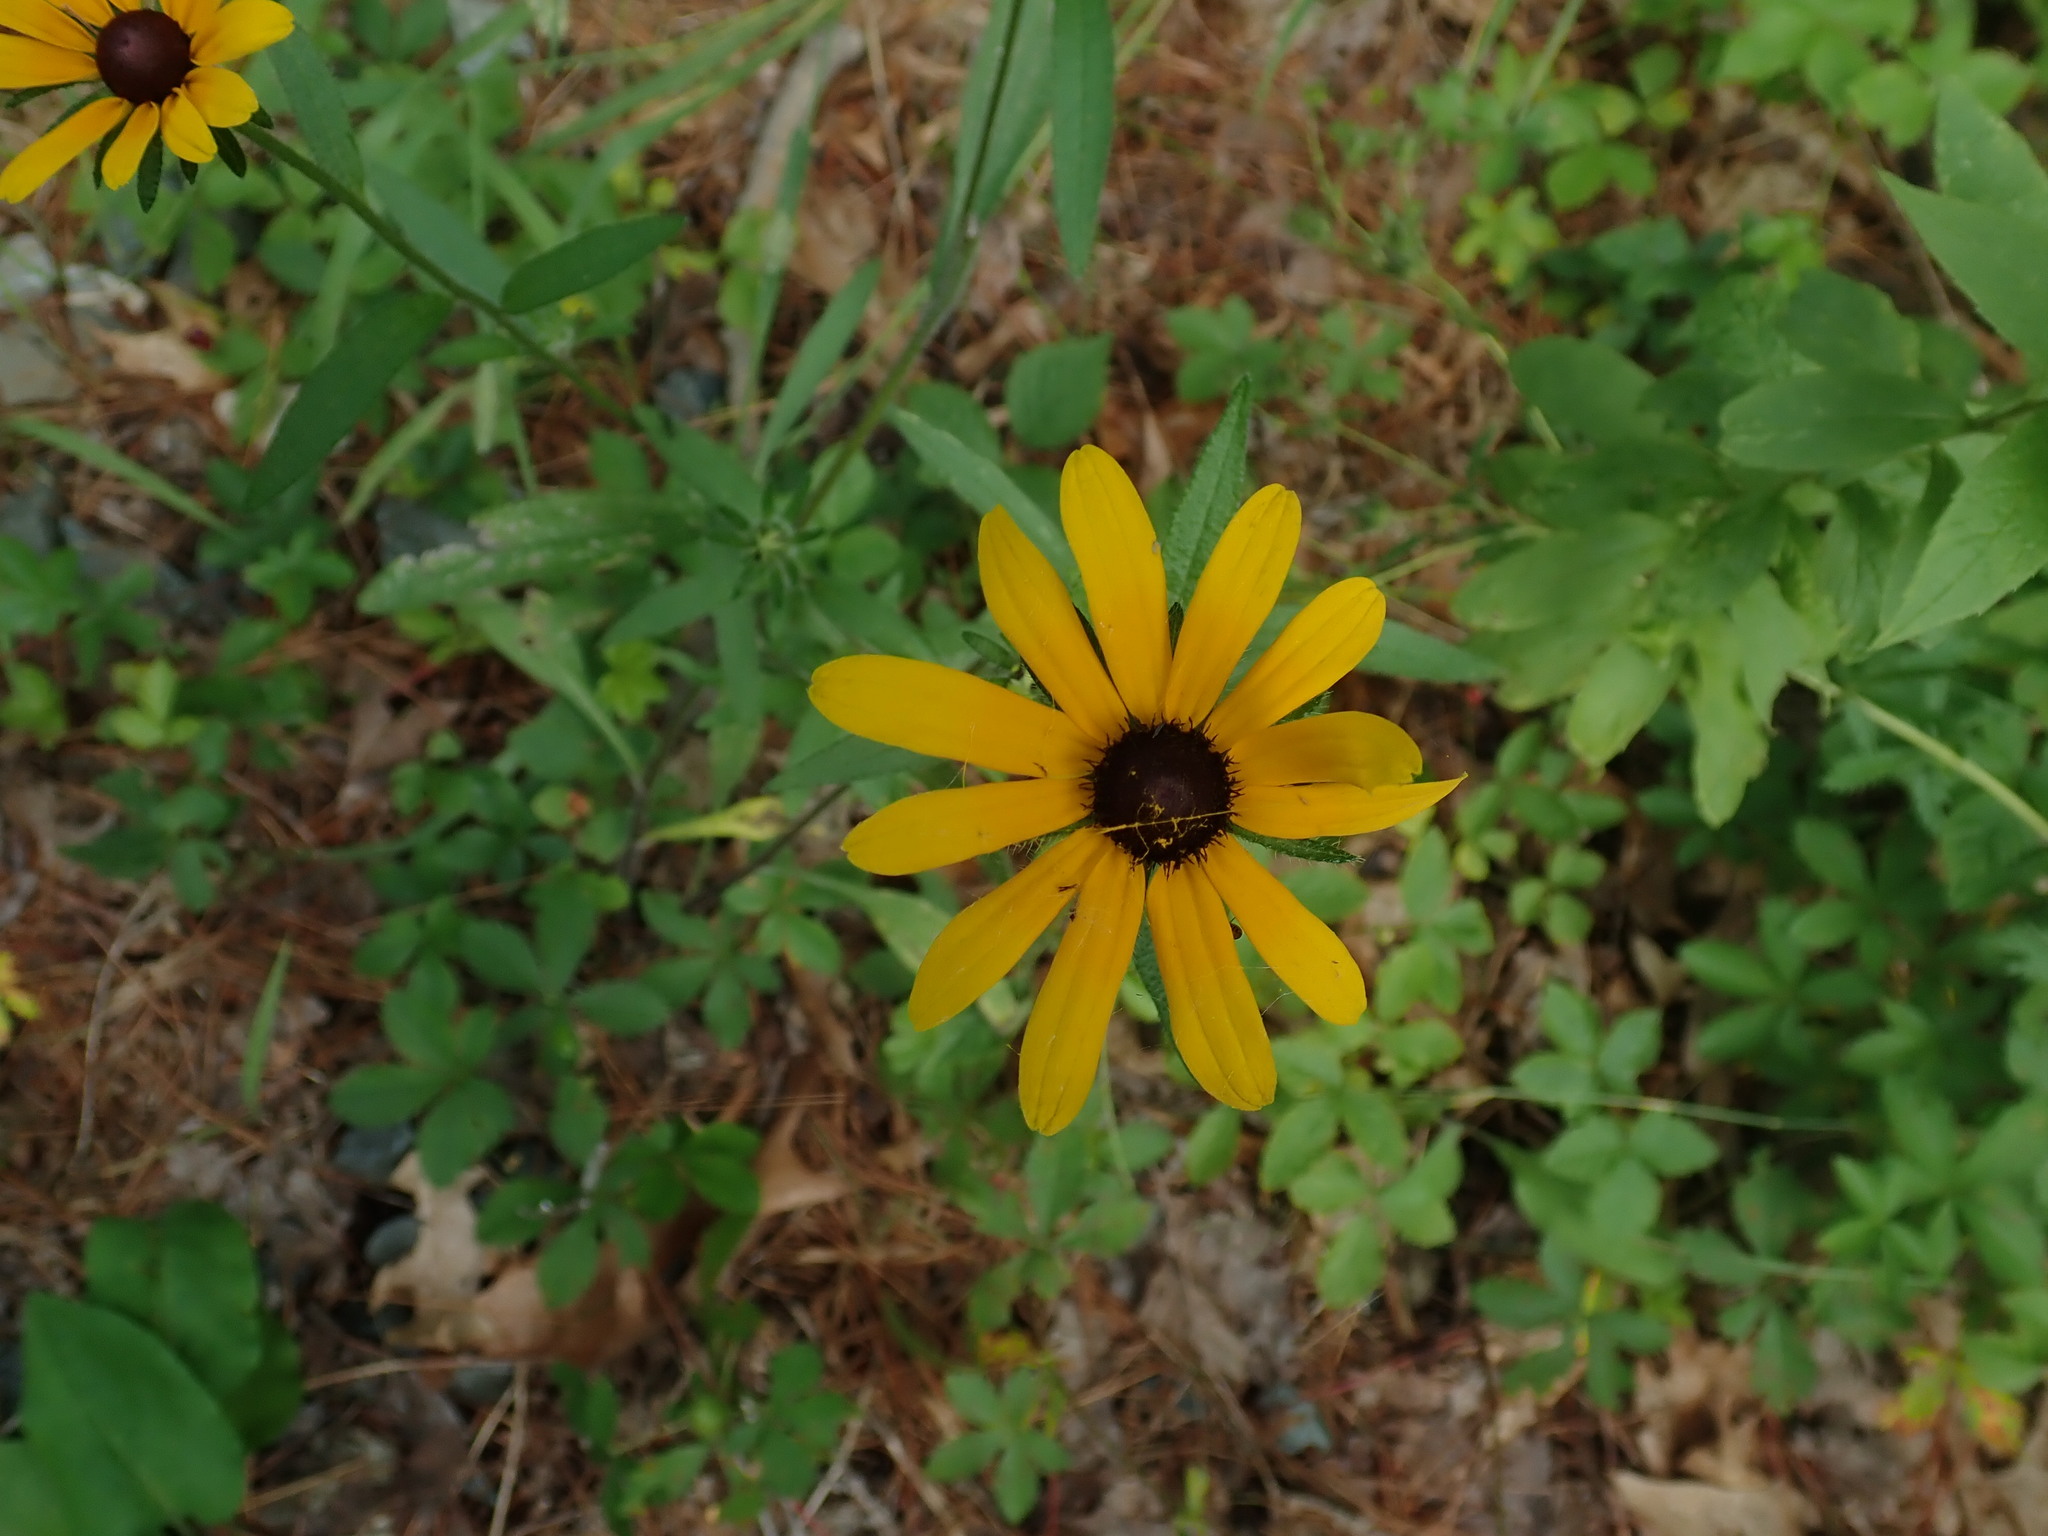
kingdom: Plantae
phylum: Tracheophyta
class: Magnoliopsida
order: Asterales
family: Asteraceae
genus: Rudbeckia
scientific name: Rudbeckia hirta
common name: Black-eyed-susan
